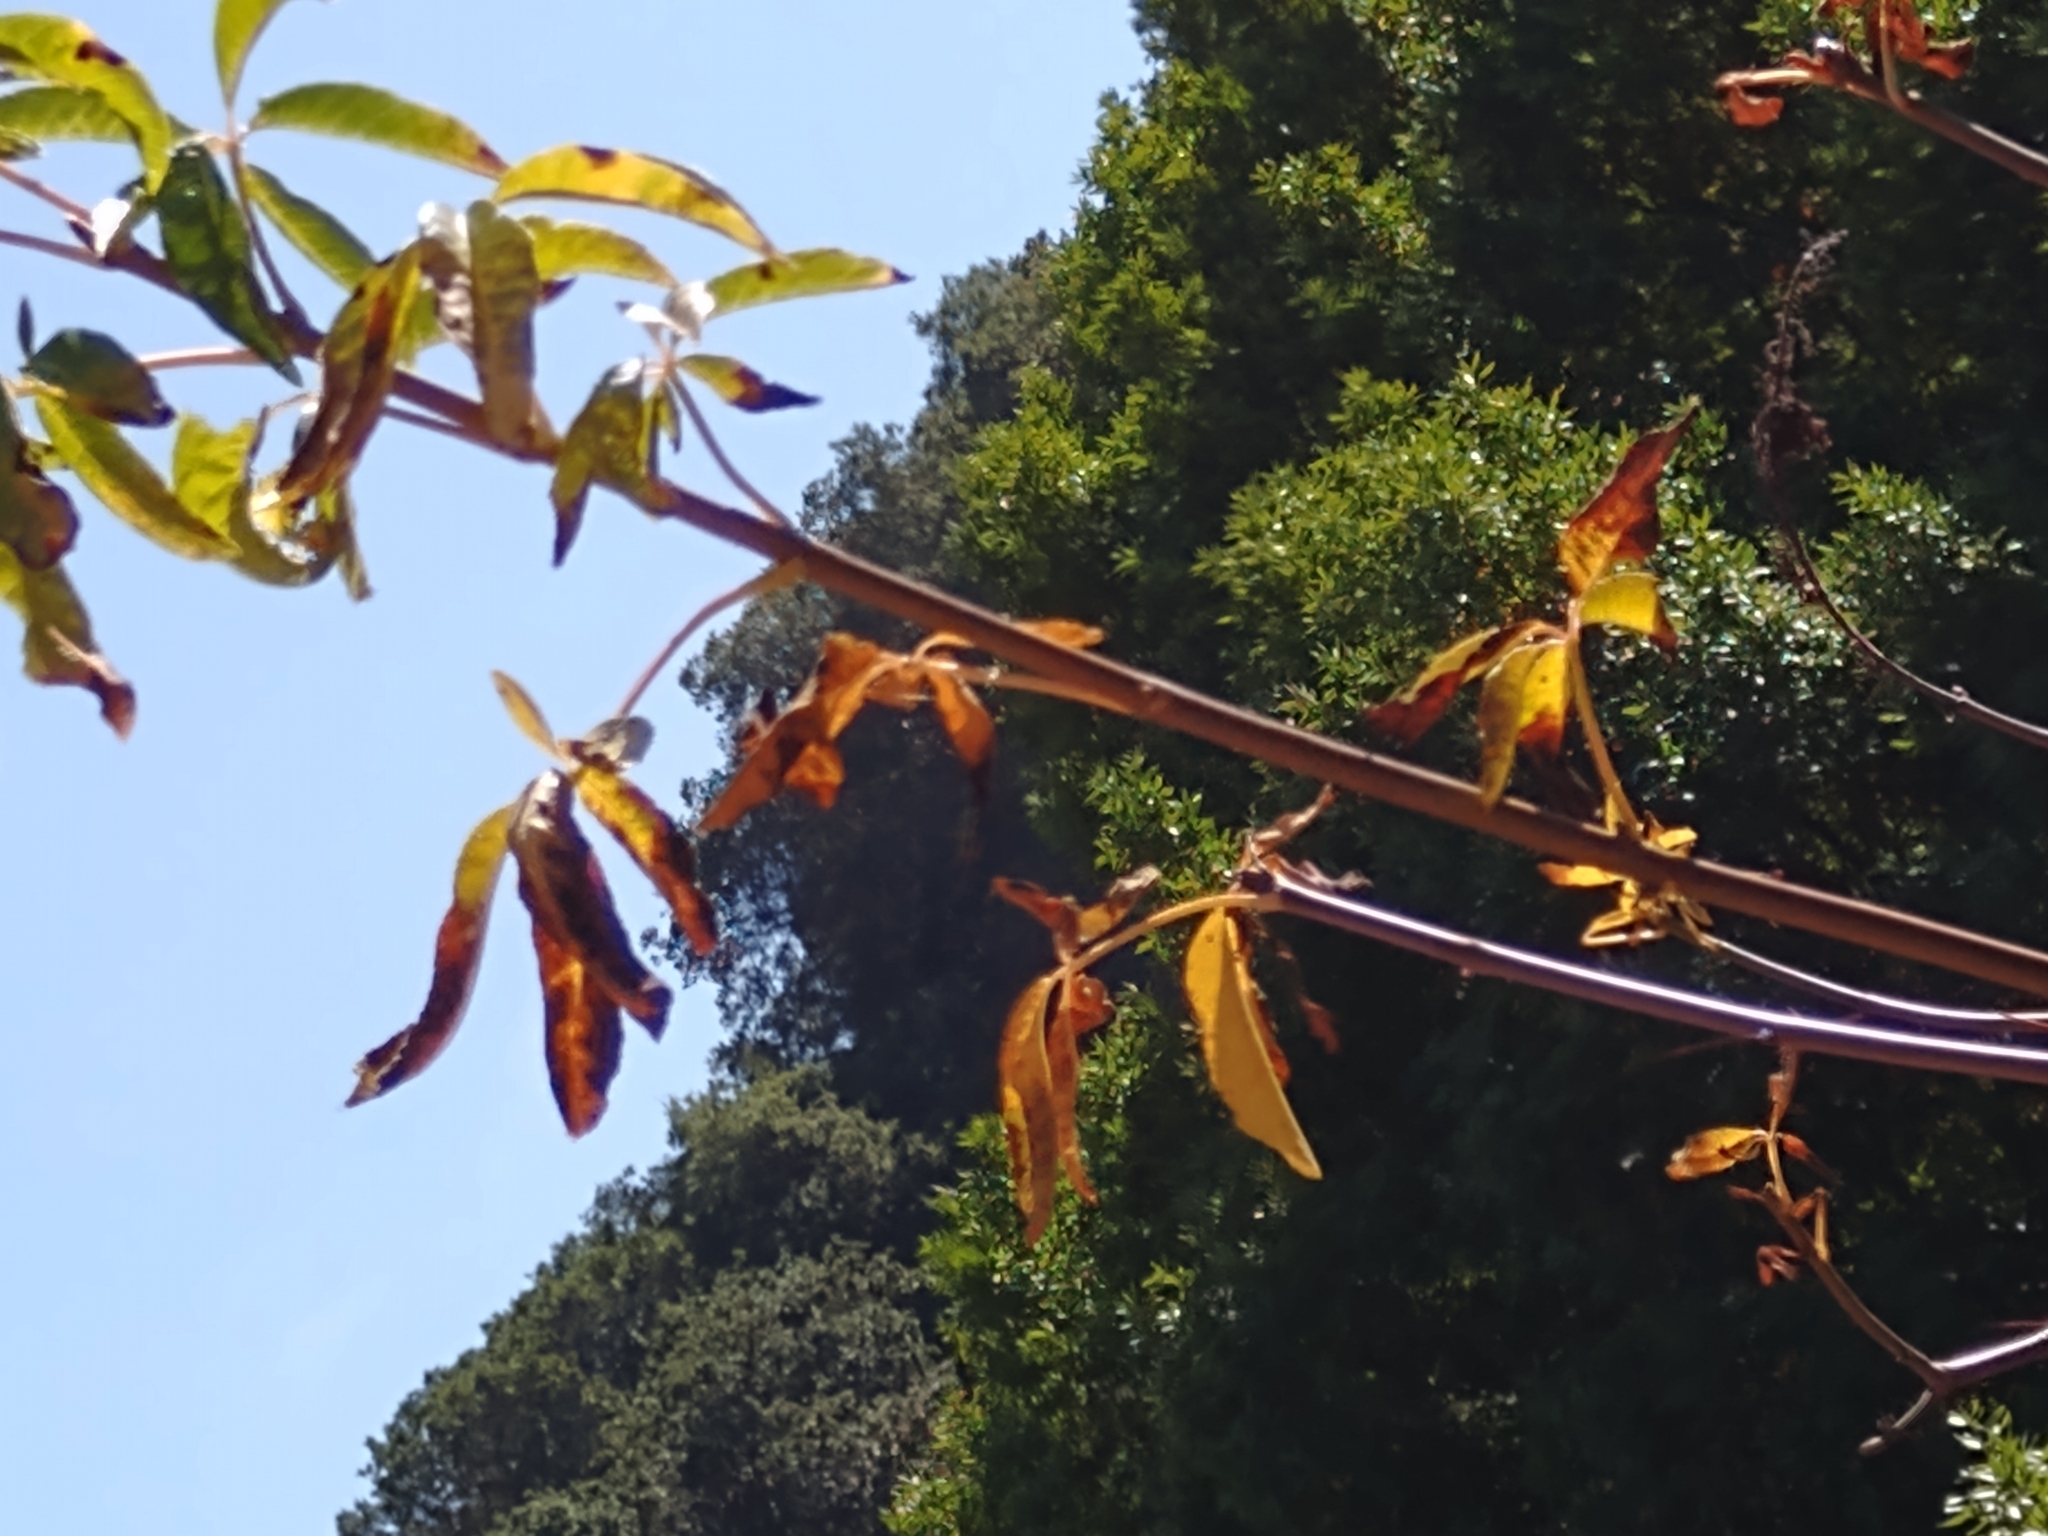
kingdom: Plantae
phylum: Tracheophyta
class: Magnoliopsida
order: Sapindales
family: Sapindaceae
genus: Aesculus
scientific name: Aesculus californica
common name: California buckeye
